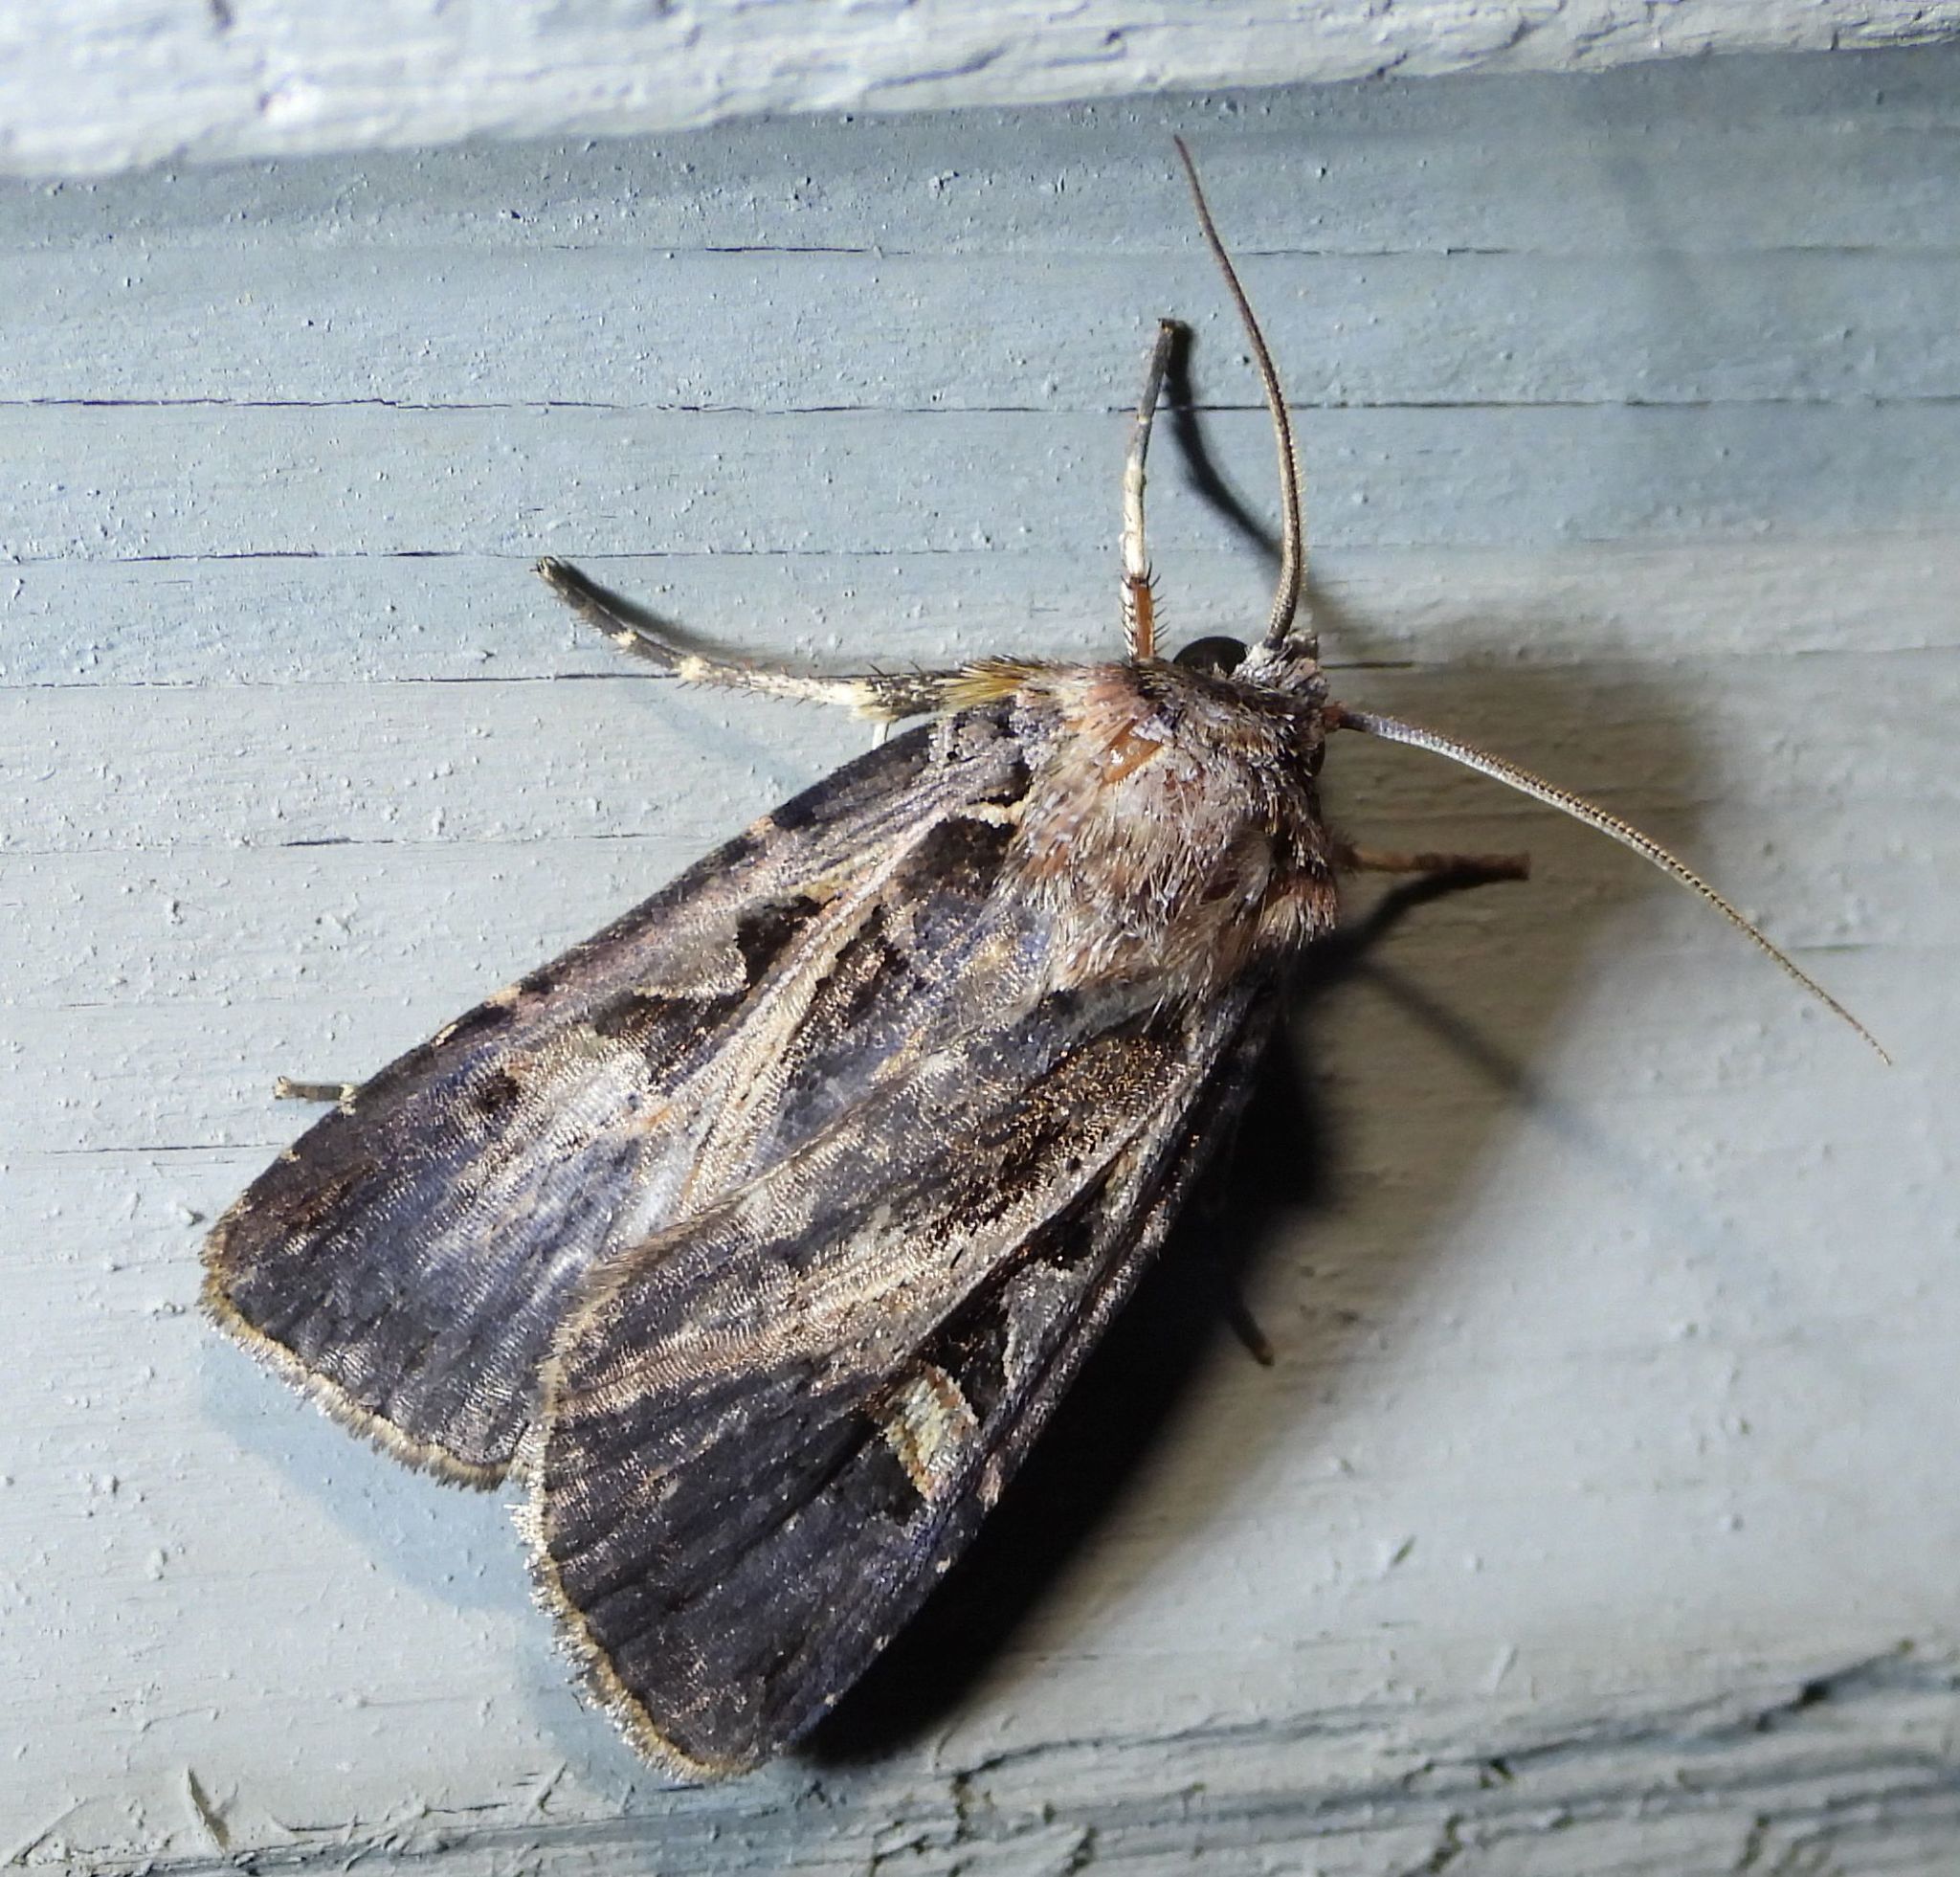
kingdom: Animalia
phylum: Arthropoda
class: Insecta
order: Lepidoptera
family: Noctuidae
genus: Feltia
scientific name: Feltia herilis
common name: Master's dart
